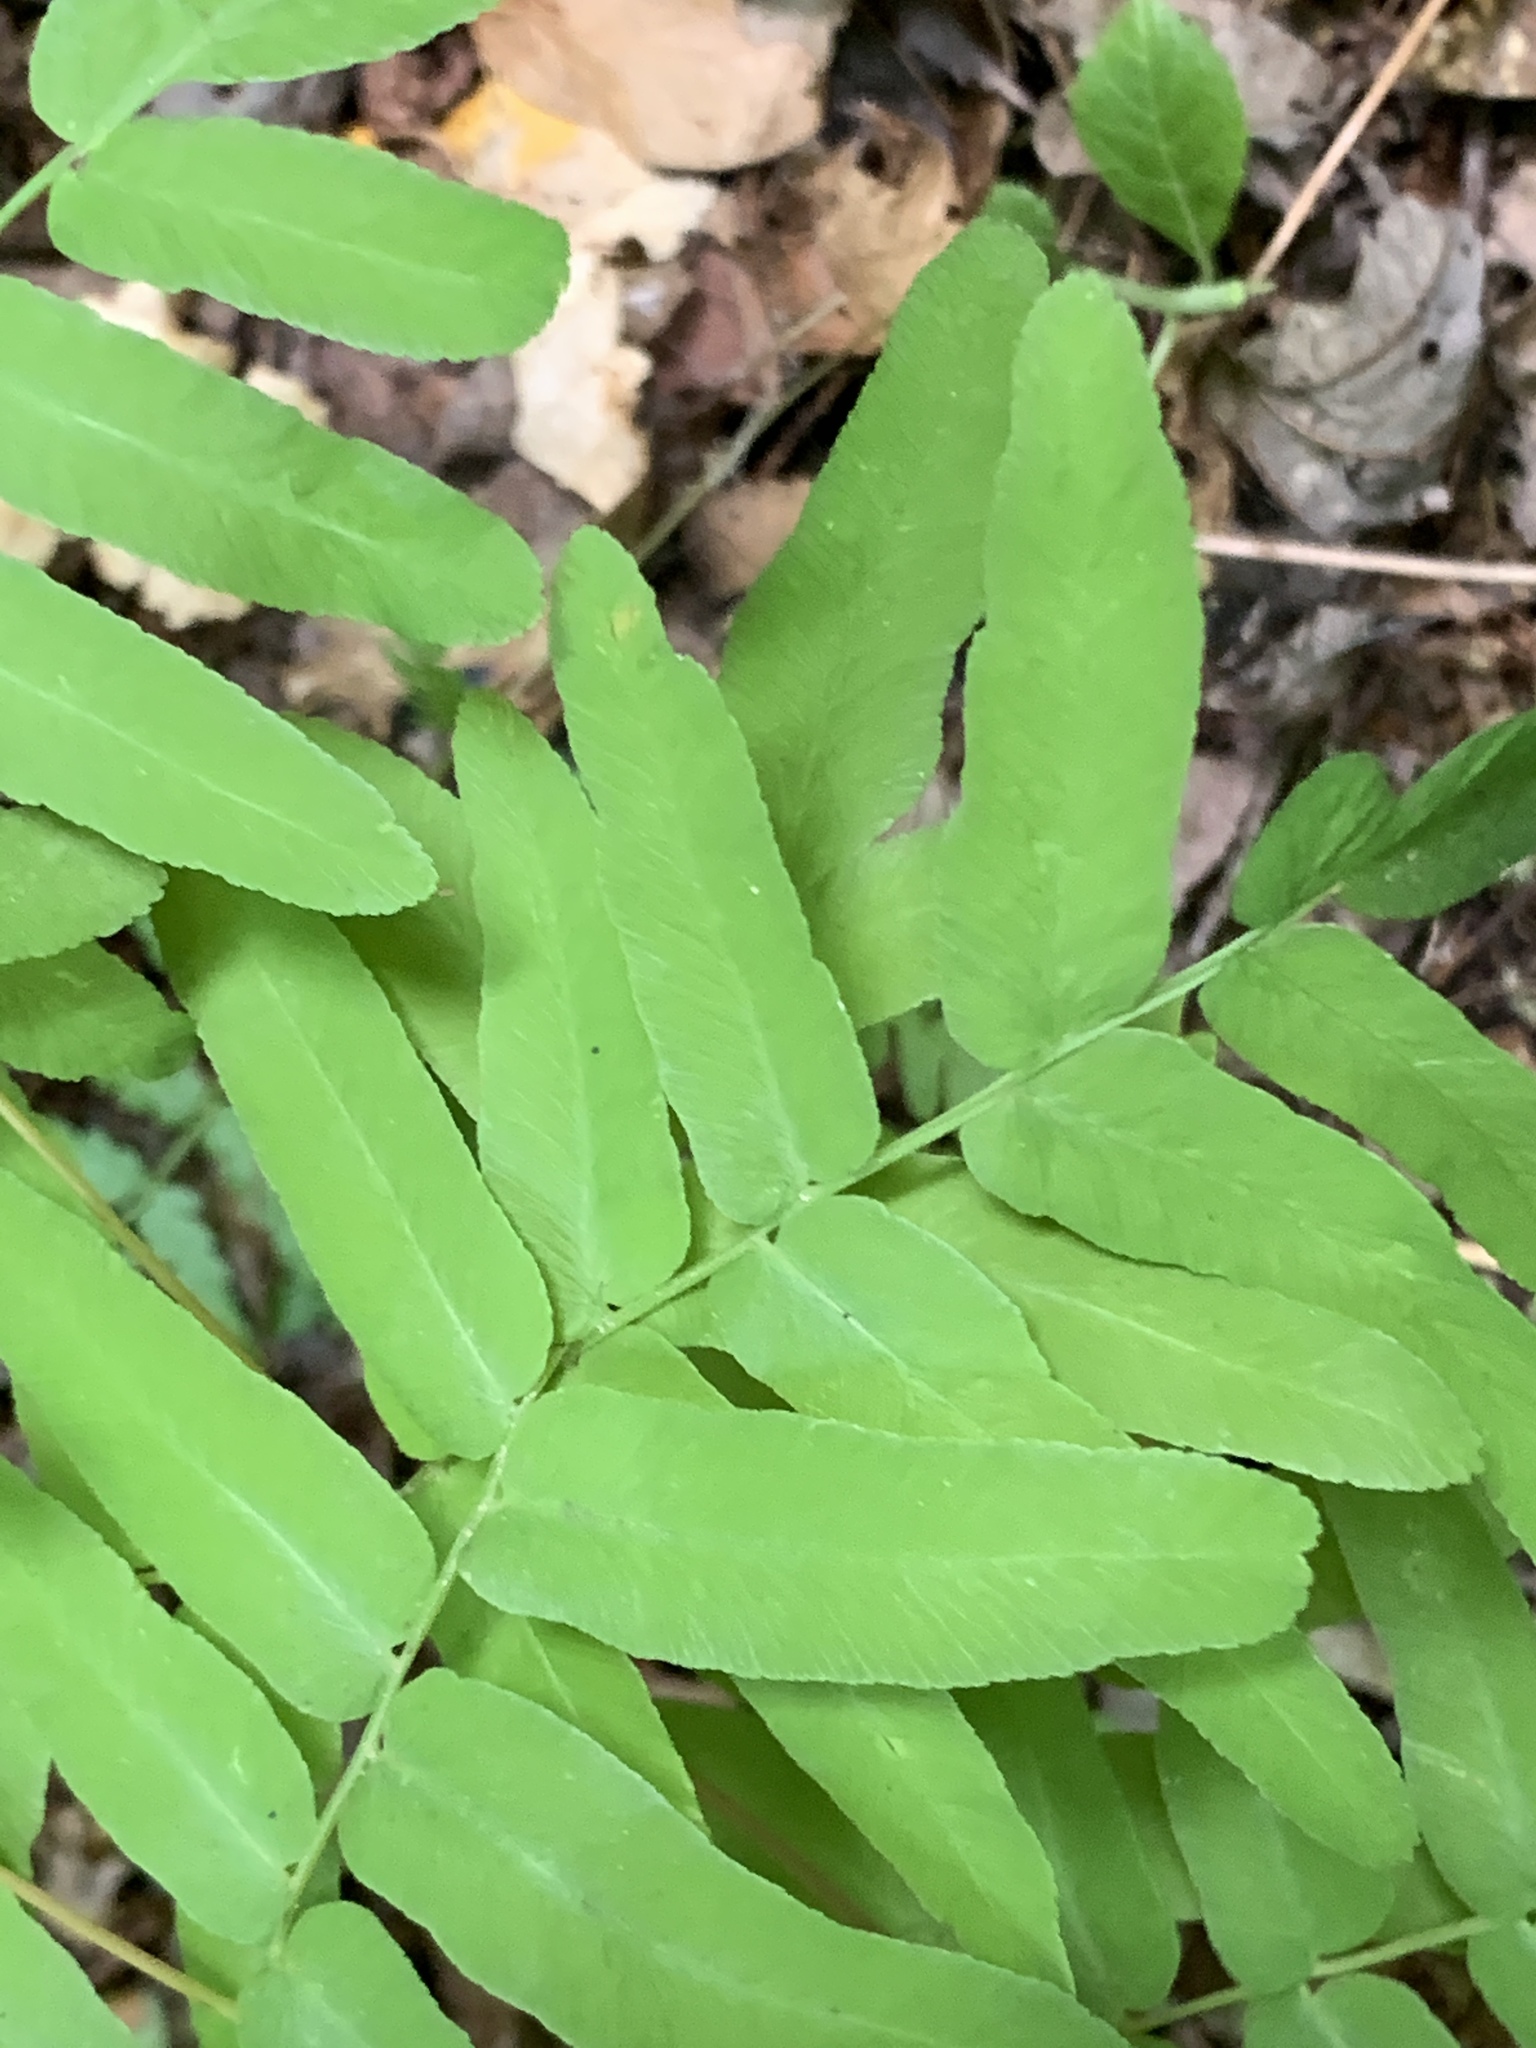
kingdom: Plantae
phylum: Tracheophyta
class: Polypodiopsida
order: Osmundales
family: Osmundaceae
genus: Osmunda
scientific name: Osmunda spectabilis
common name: American royal fern
